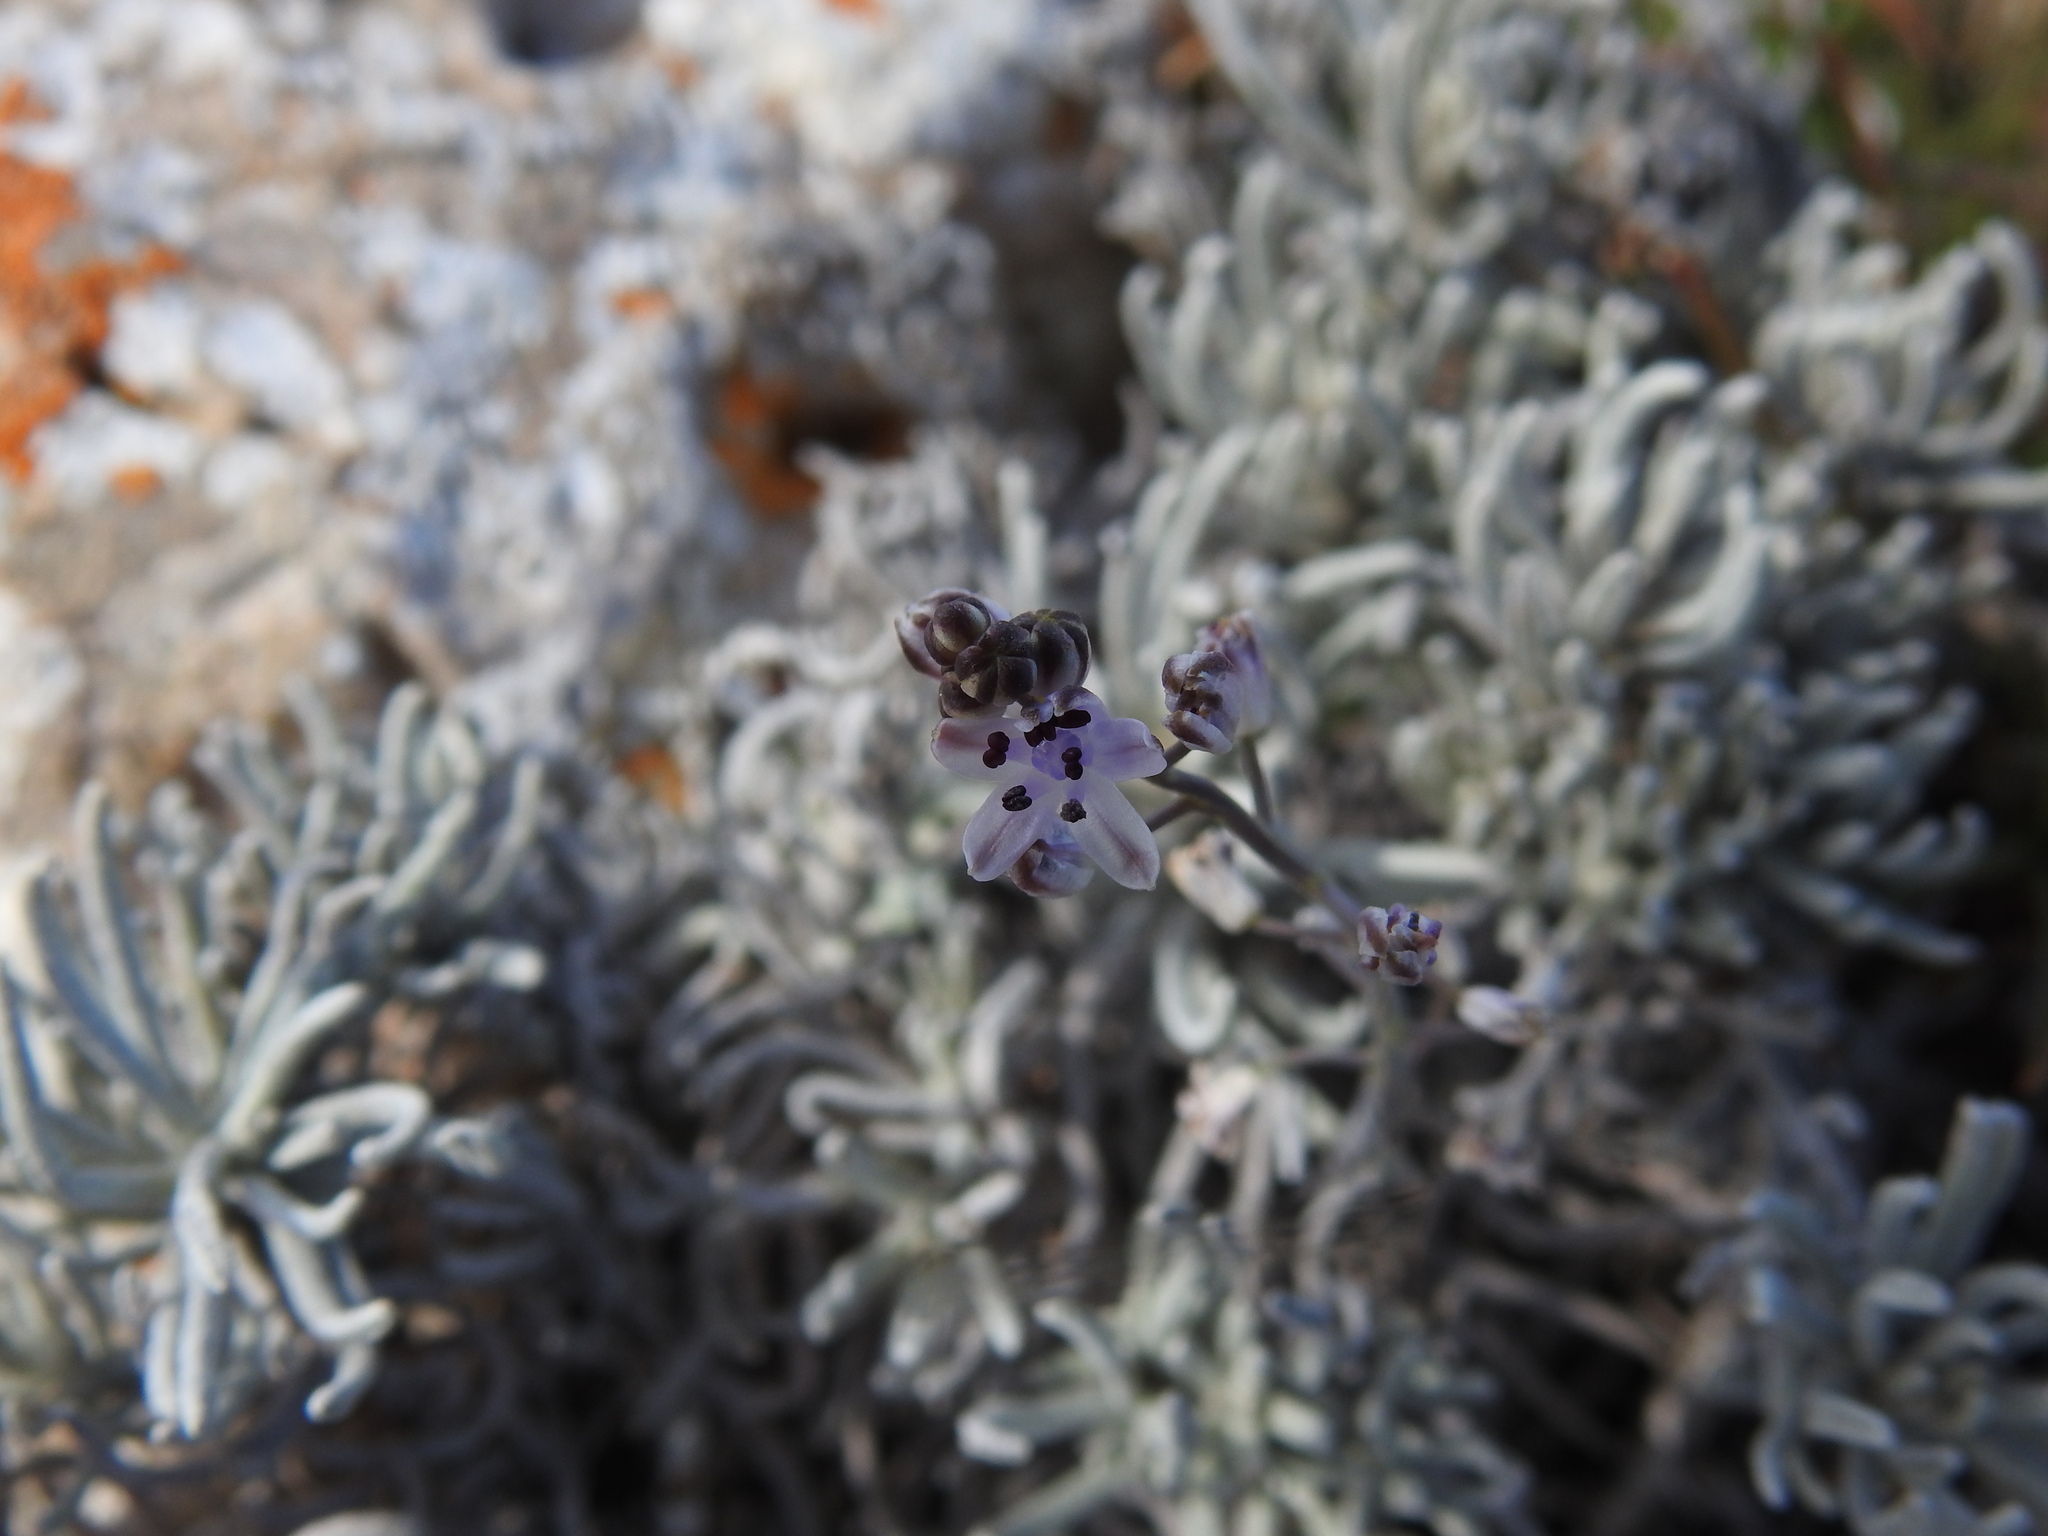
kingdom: Plantae
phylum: Tracheophyta
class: Liliopsida
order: Asparagales
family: Asparagaceae
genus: Prospero
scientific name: Prospero autumnale
